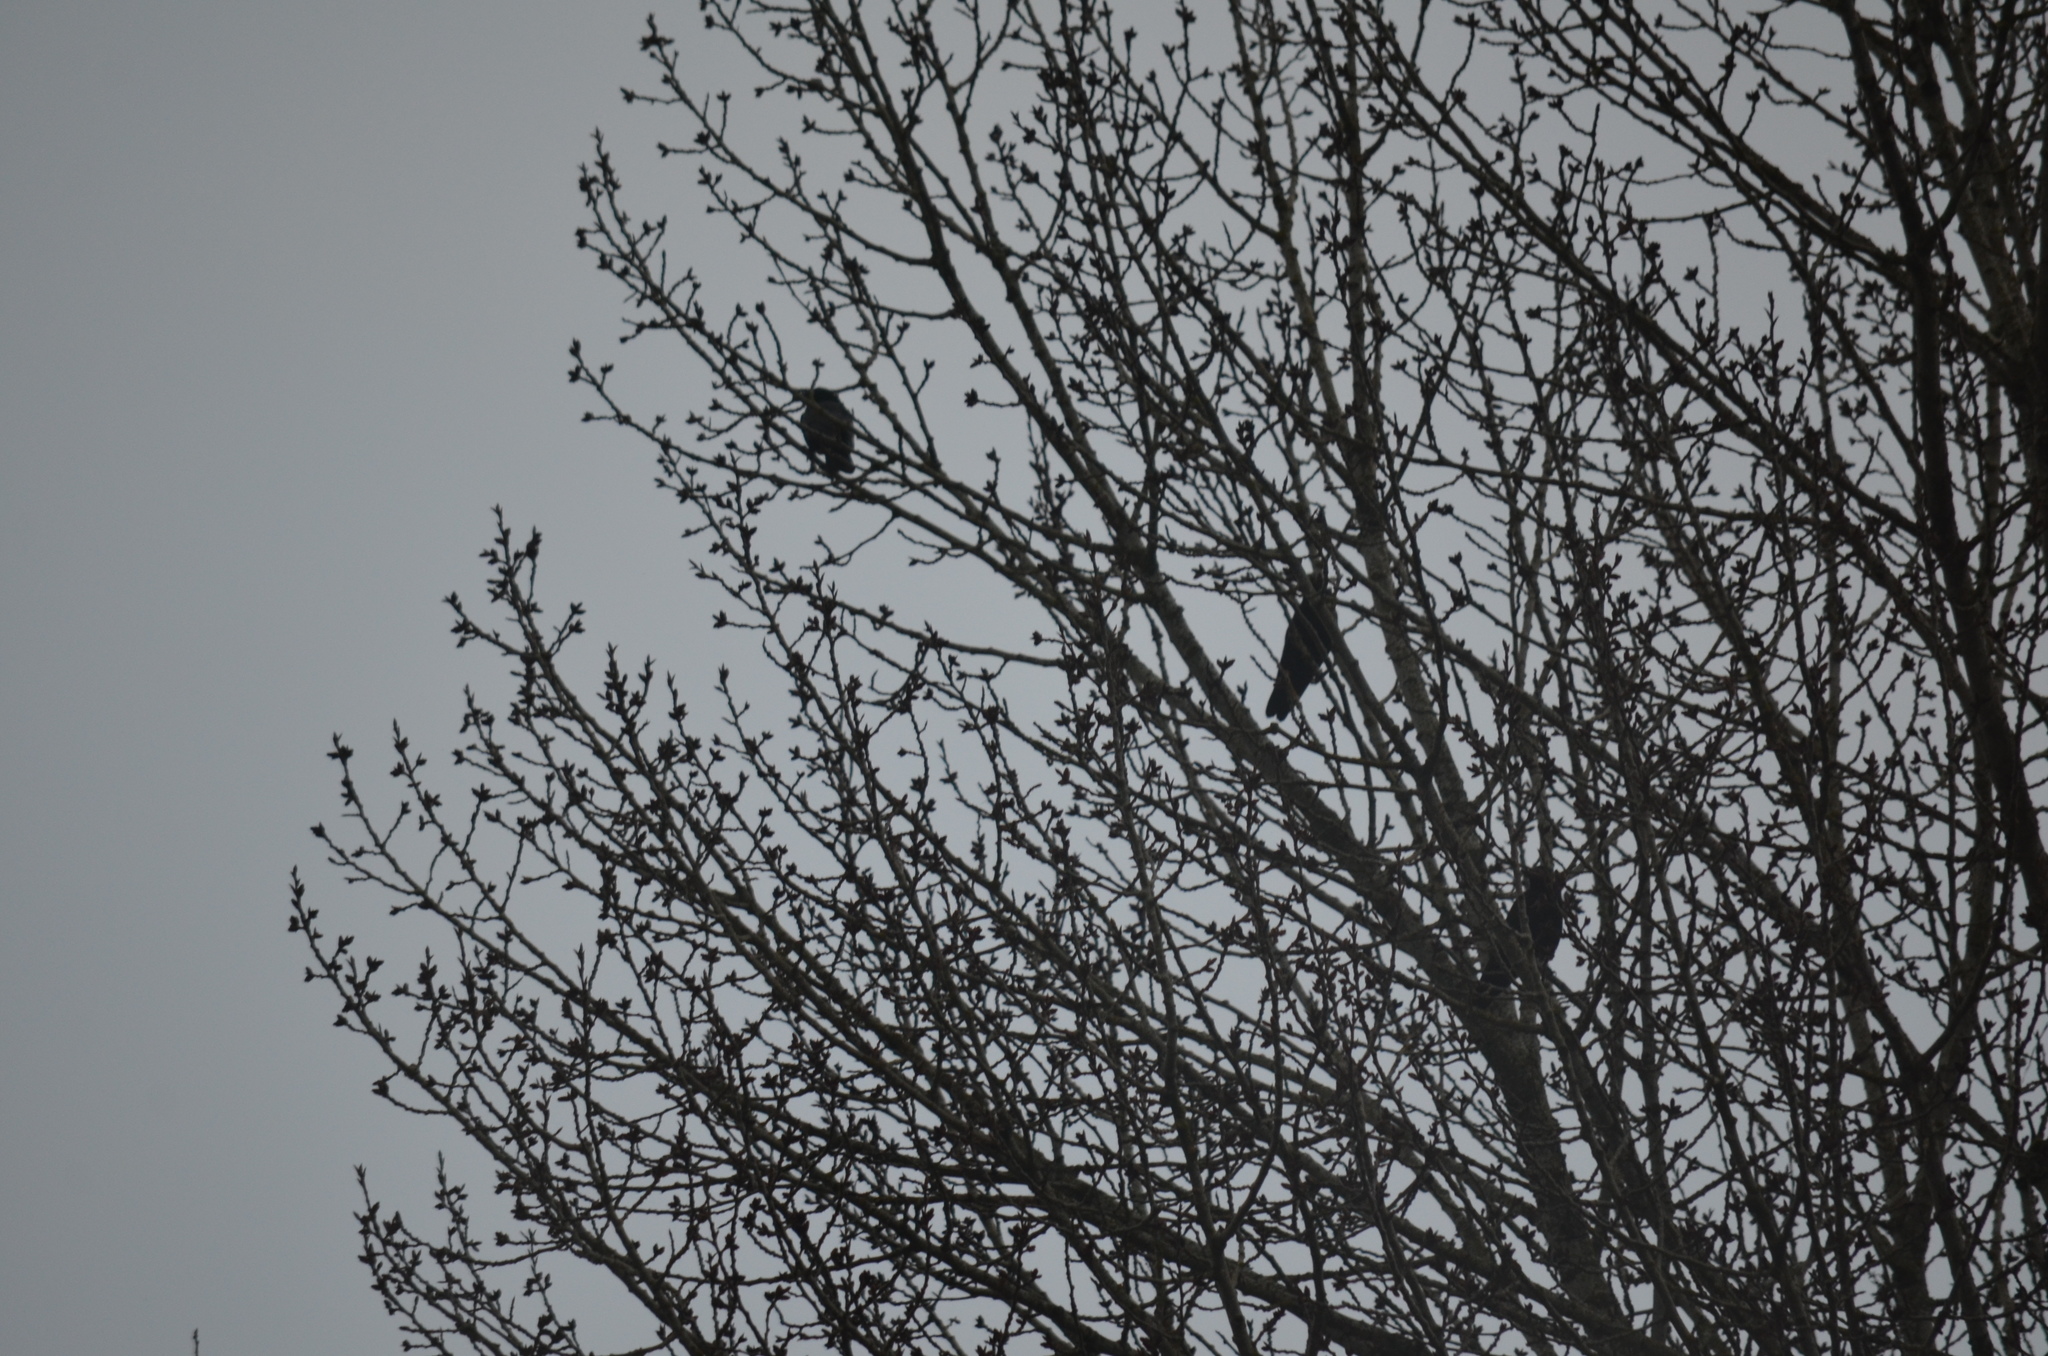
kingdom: Animalia
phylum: Chordata
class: Aves
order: Passeriformes
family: Corvidae
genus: Corvus
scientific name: Corvus brachyrhynchos
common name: American crow
